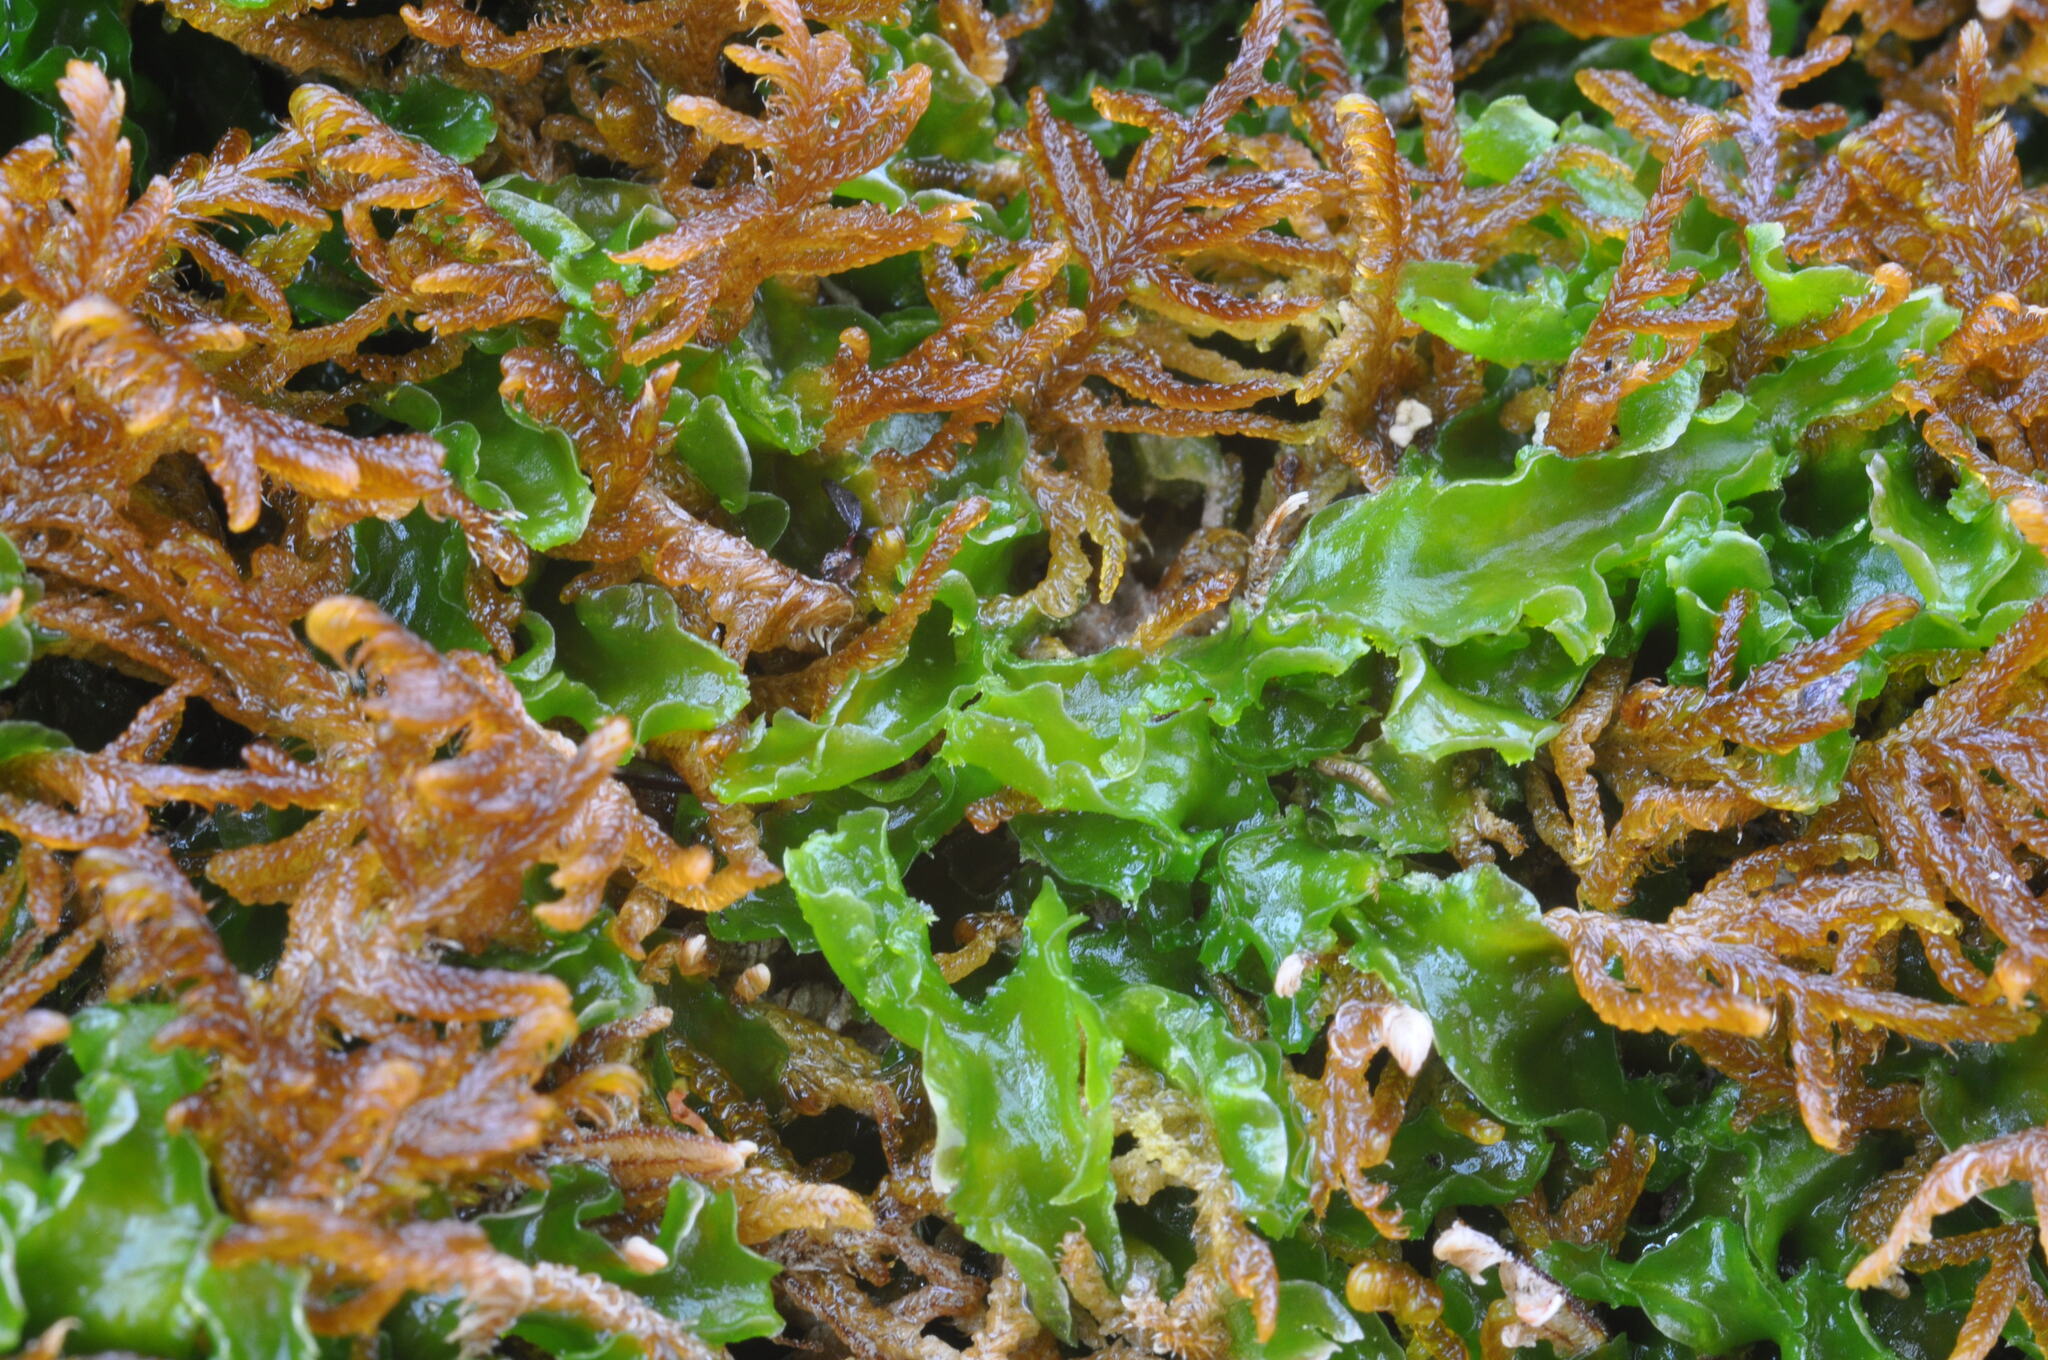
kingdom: Plantae
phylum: Marchantiophyta
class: Jungermanniopsida
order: Metzgeriales
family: Aneuraceae
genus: Aneura
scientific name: Aneura pinguis
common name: Common greasewort
